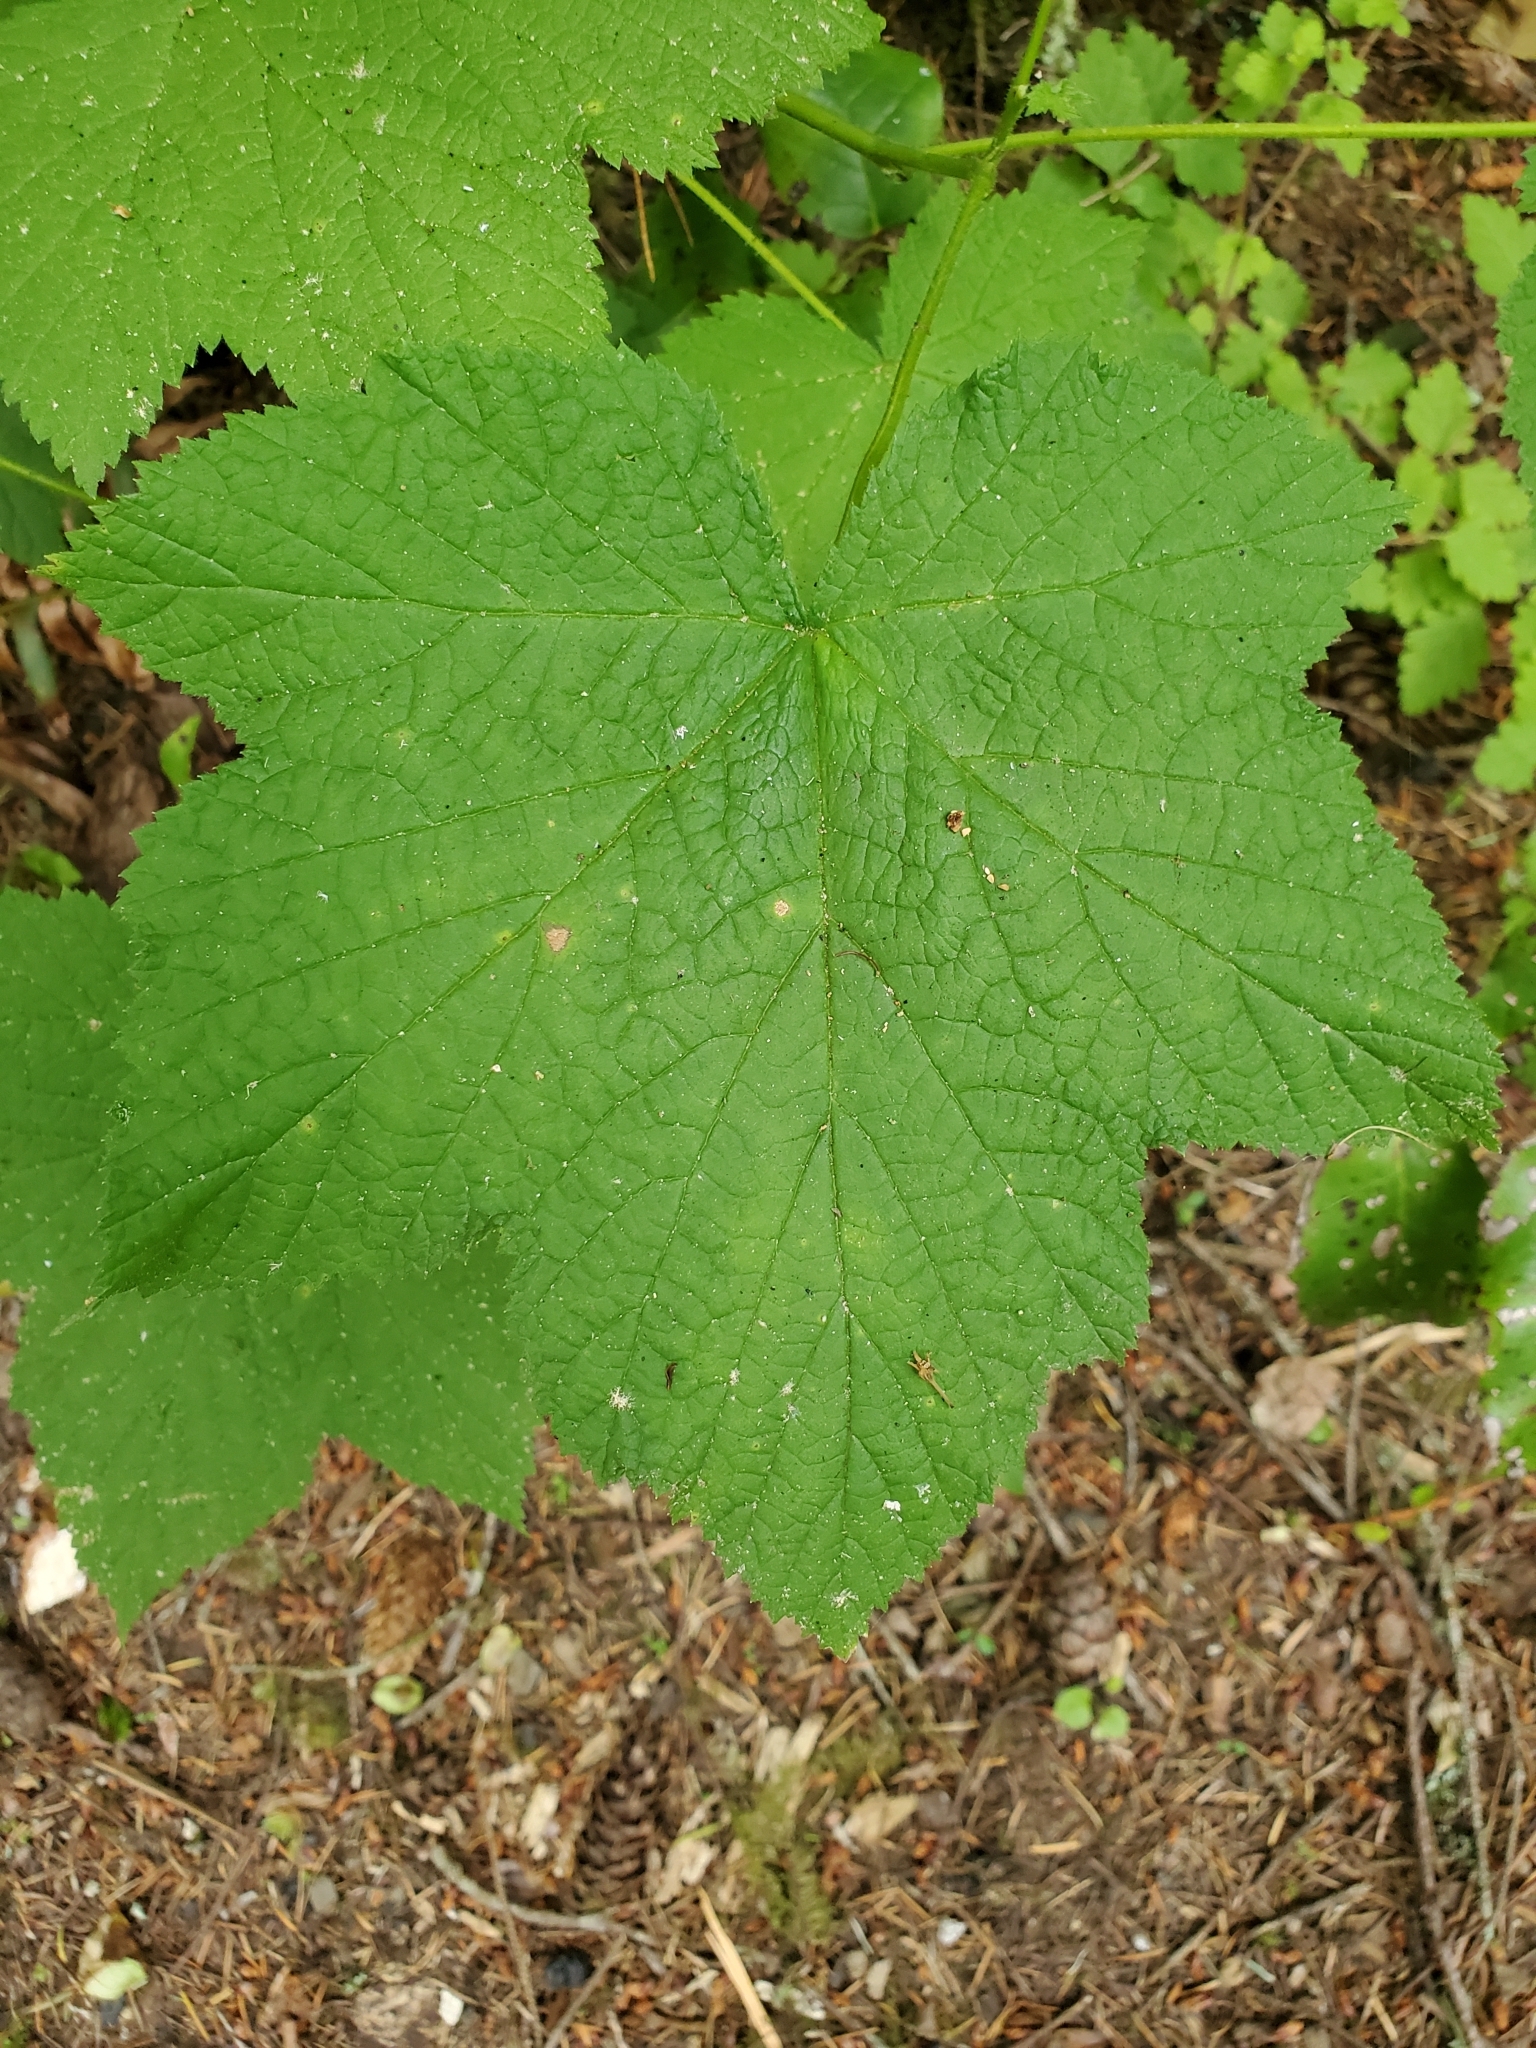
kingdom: Plantae
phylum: Tracheophyta
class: Magnoliopsida
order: Rosales
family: Rosaceae
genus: Rubus
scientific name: Rubus parviflorus
